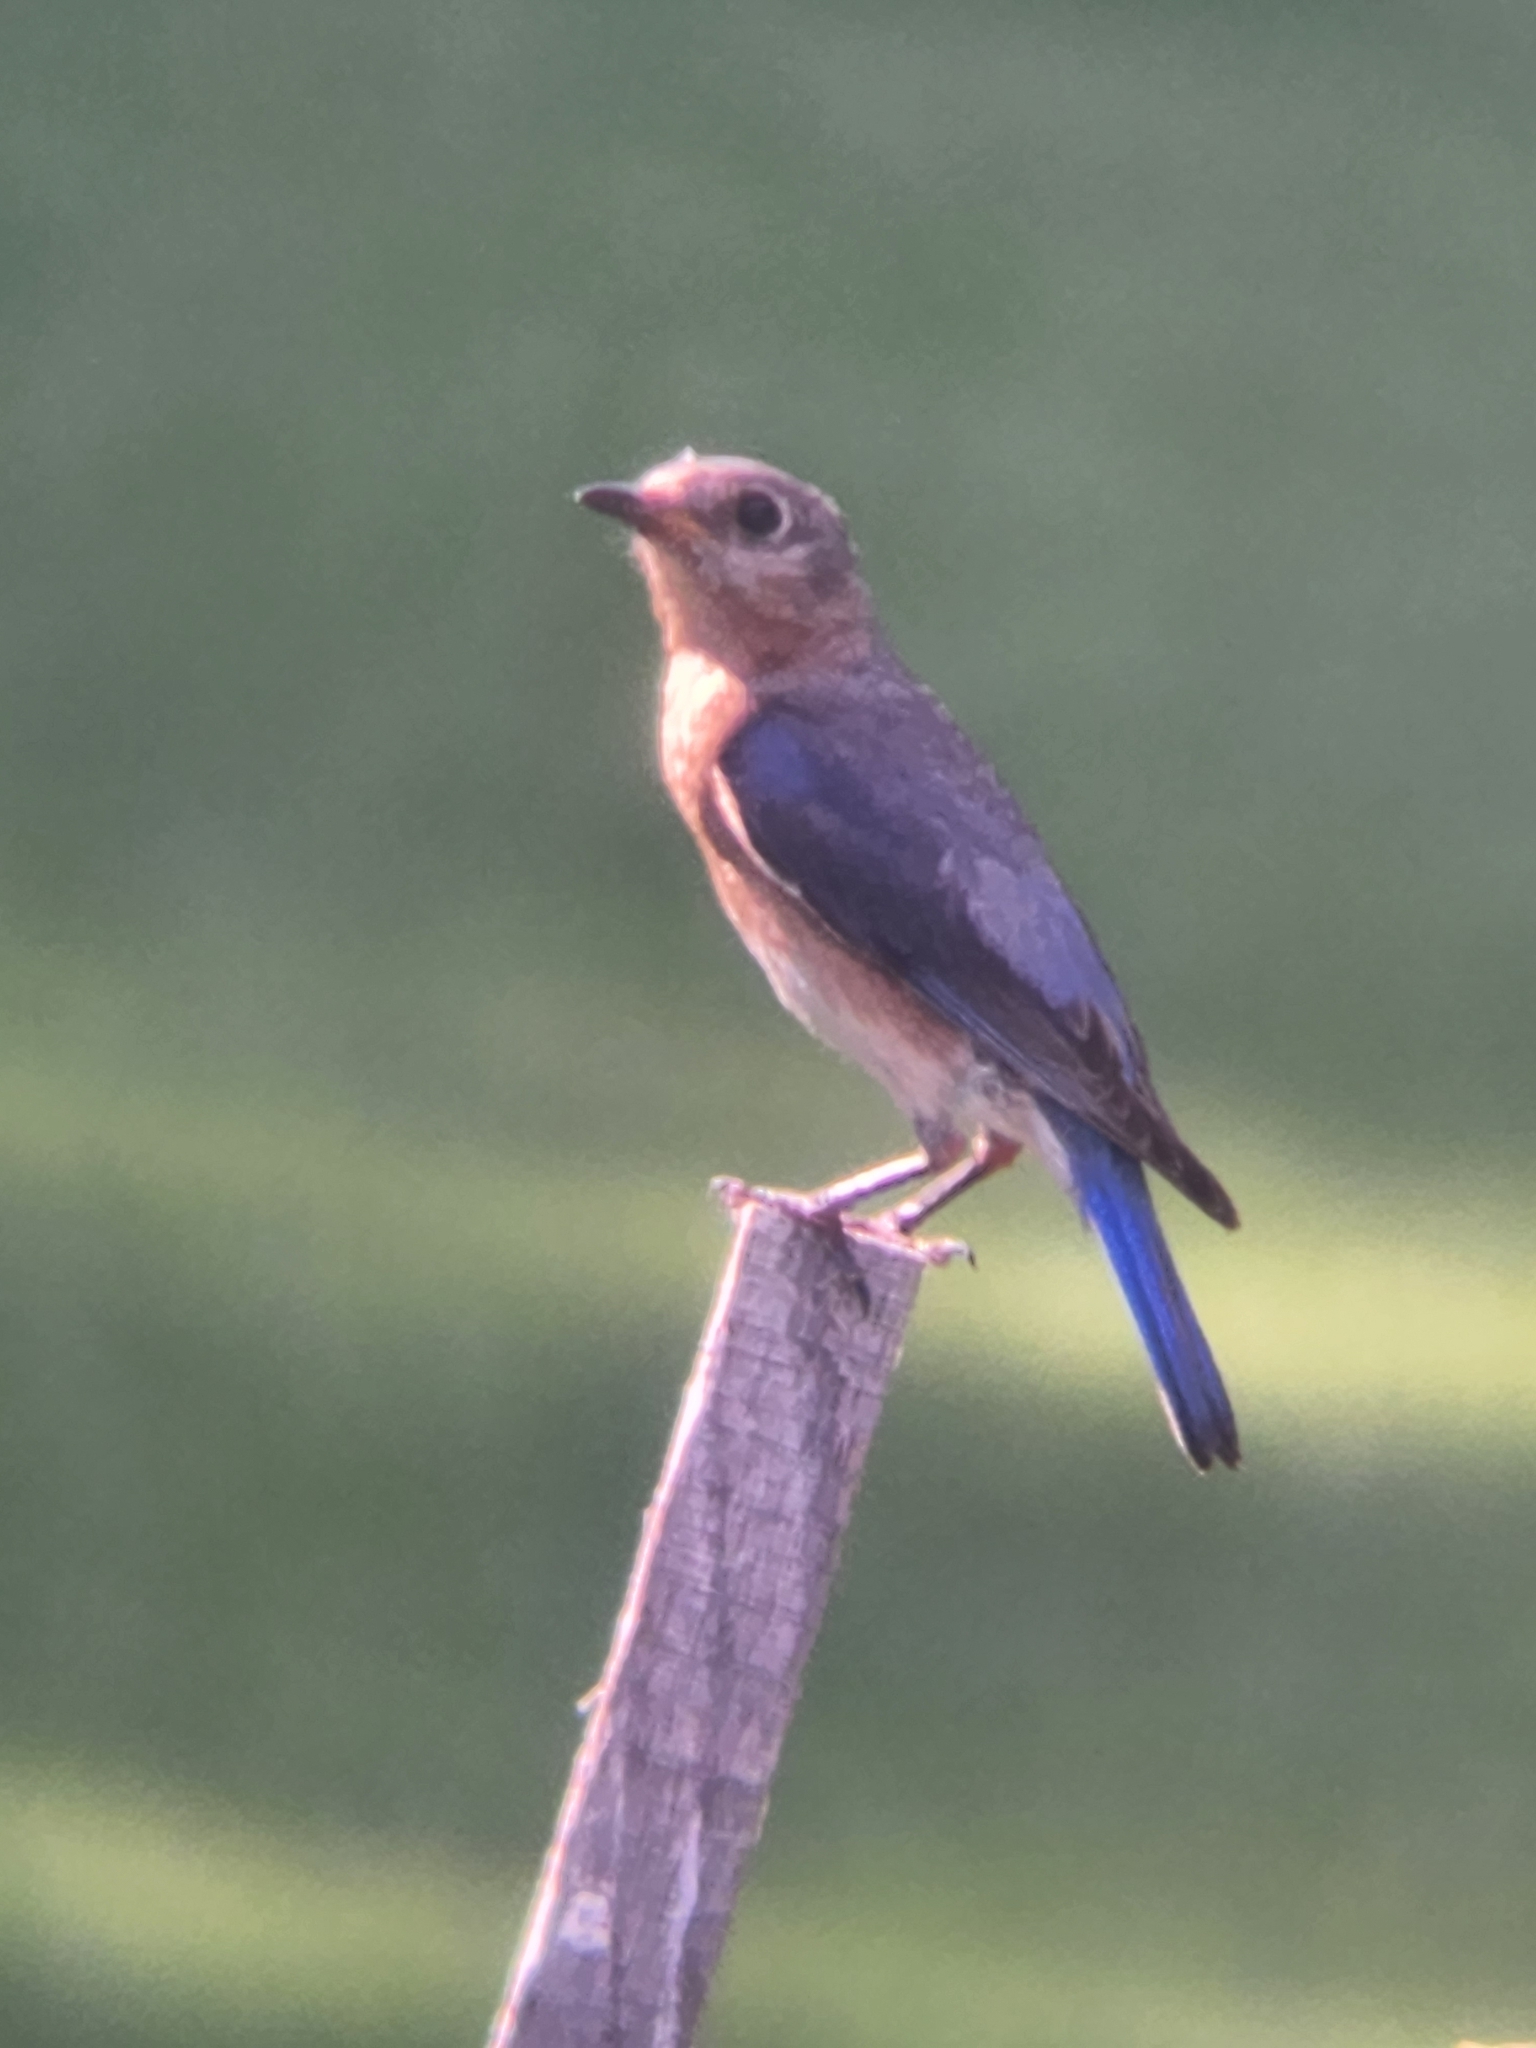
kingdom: Animalia
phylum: Chordata
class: Aves
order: Passeriformes
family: Turdidae
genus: Sialia
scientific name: Sialia sialis
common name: Eastern bluebird
